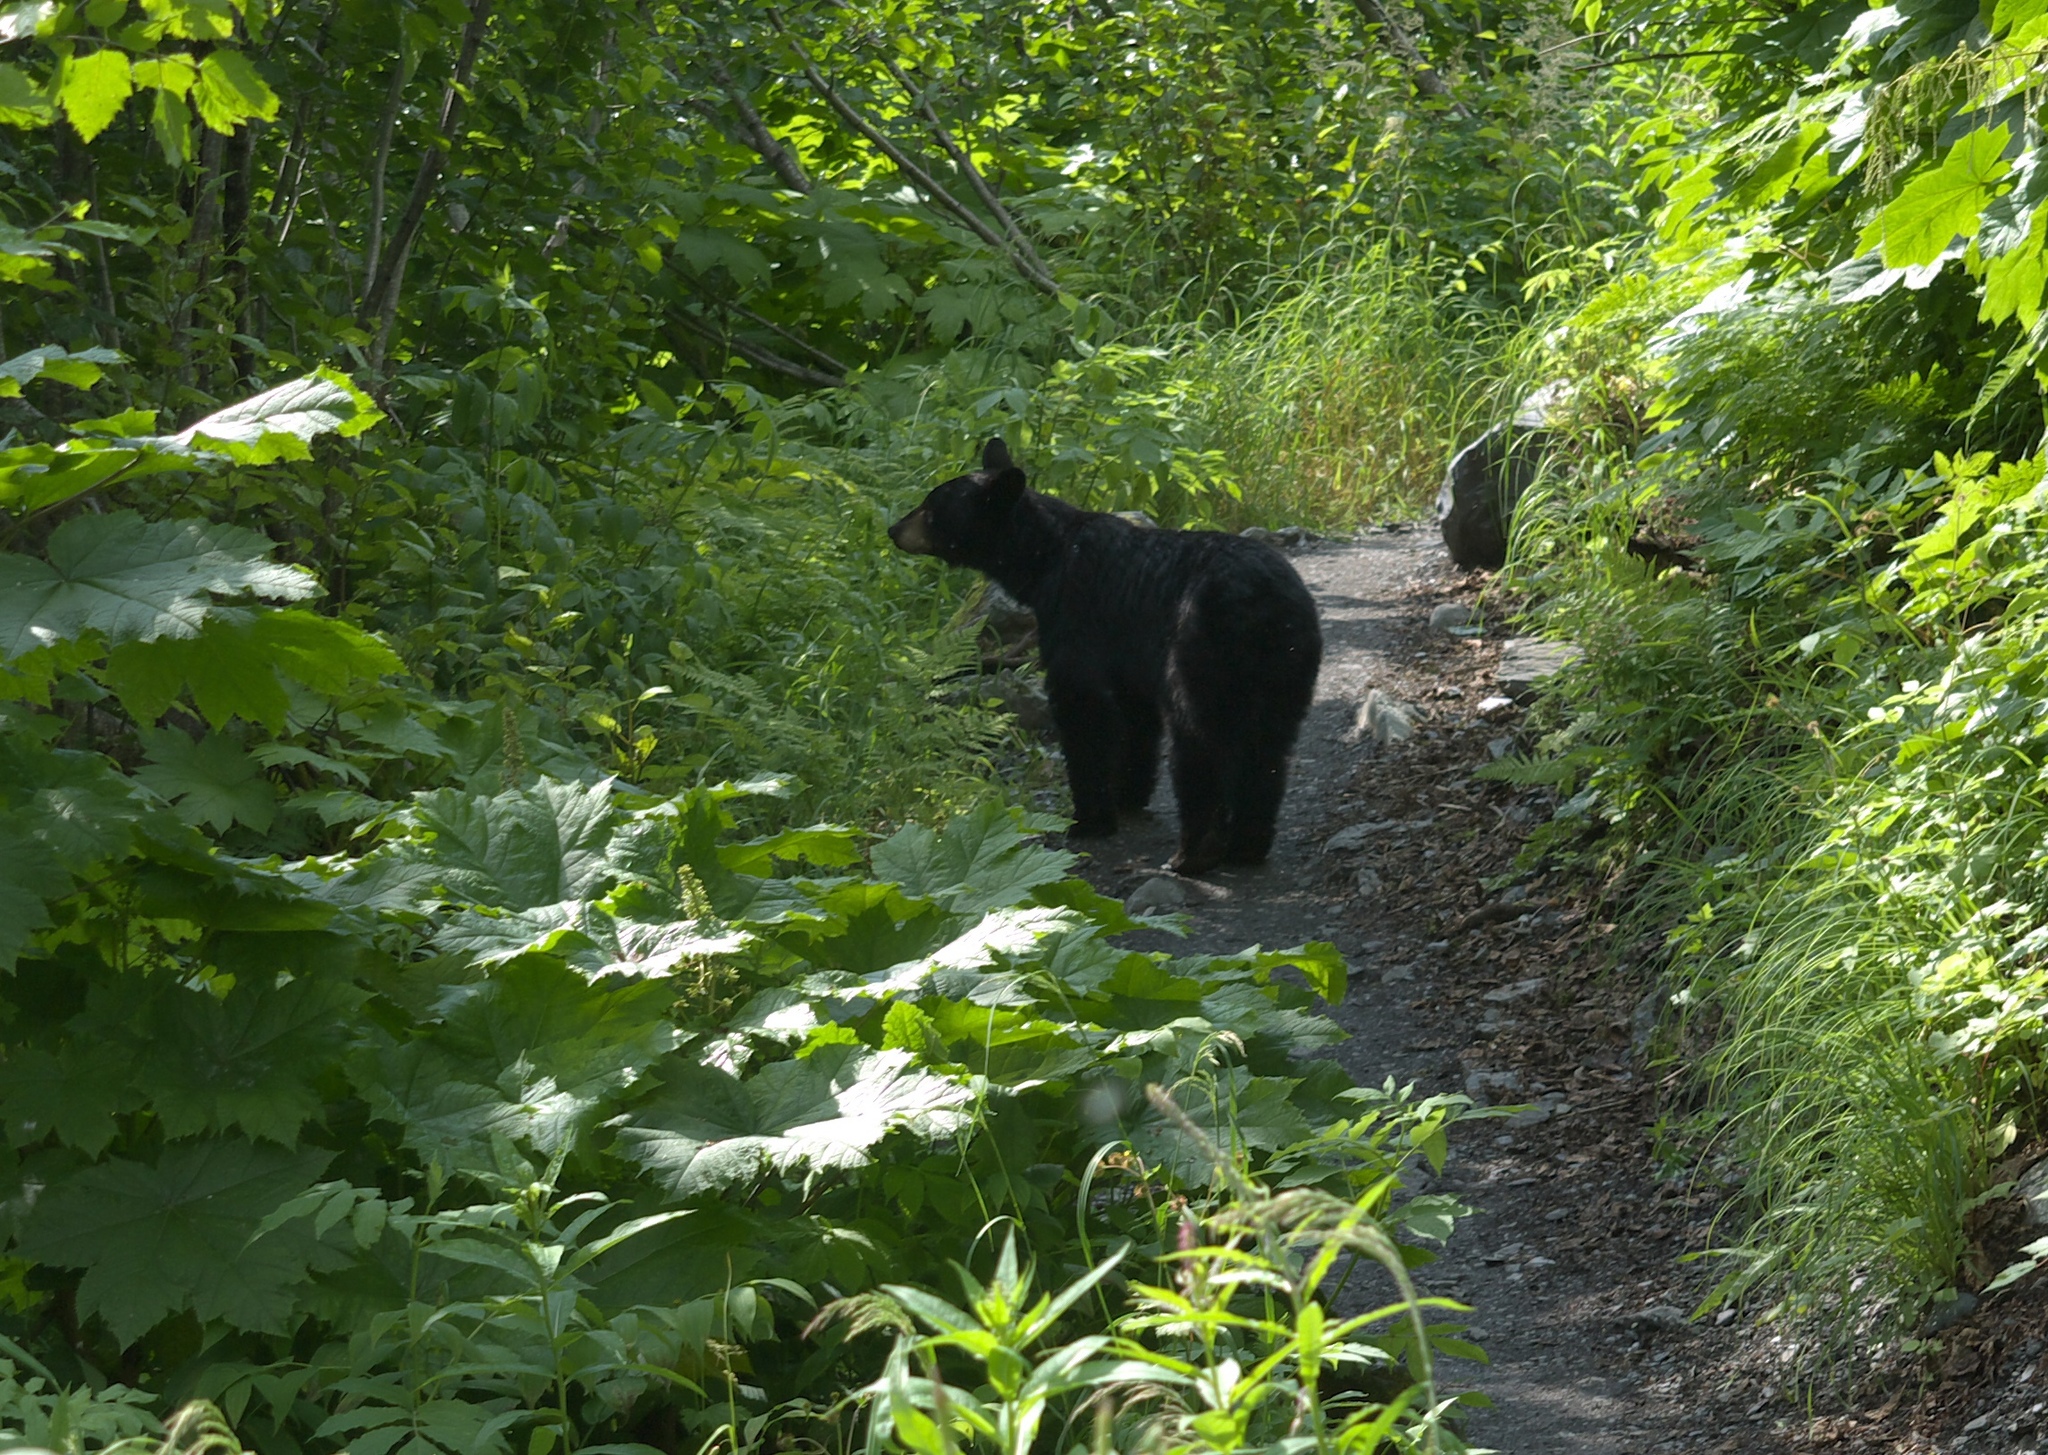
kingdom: Animalia
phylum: Chordata
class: Mammalia
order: Carnivora
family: Ursidae
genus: Ursus
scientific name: Ursus americanus
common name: American black bear
